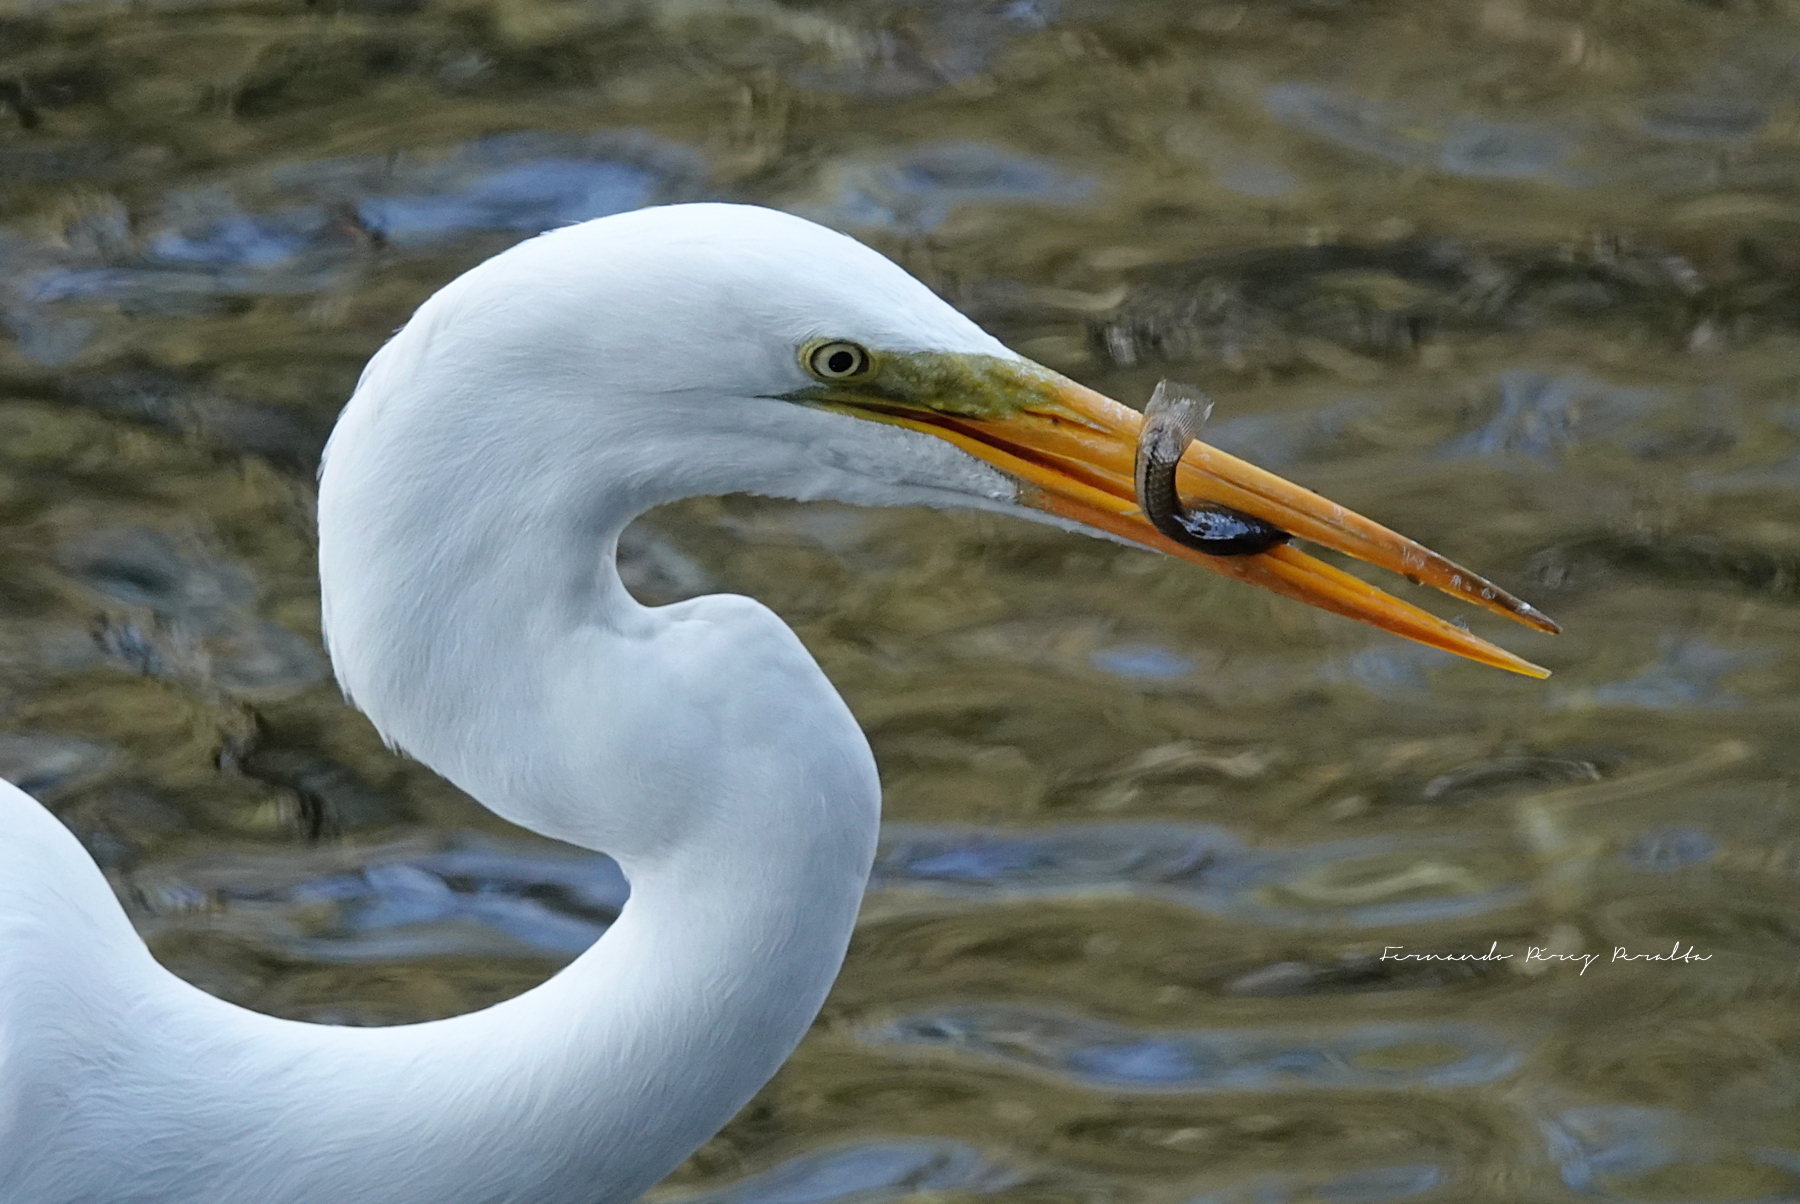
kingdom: Animalia
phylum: Chordata
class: Aves
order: Pelecaniformes
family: Ardeidae
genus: Ardea
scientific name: Ardea alba
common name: Great egret
